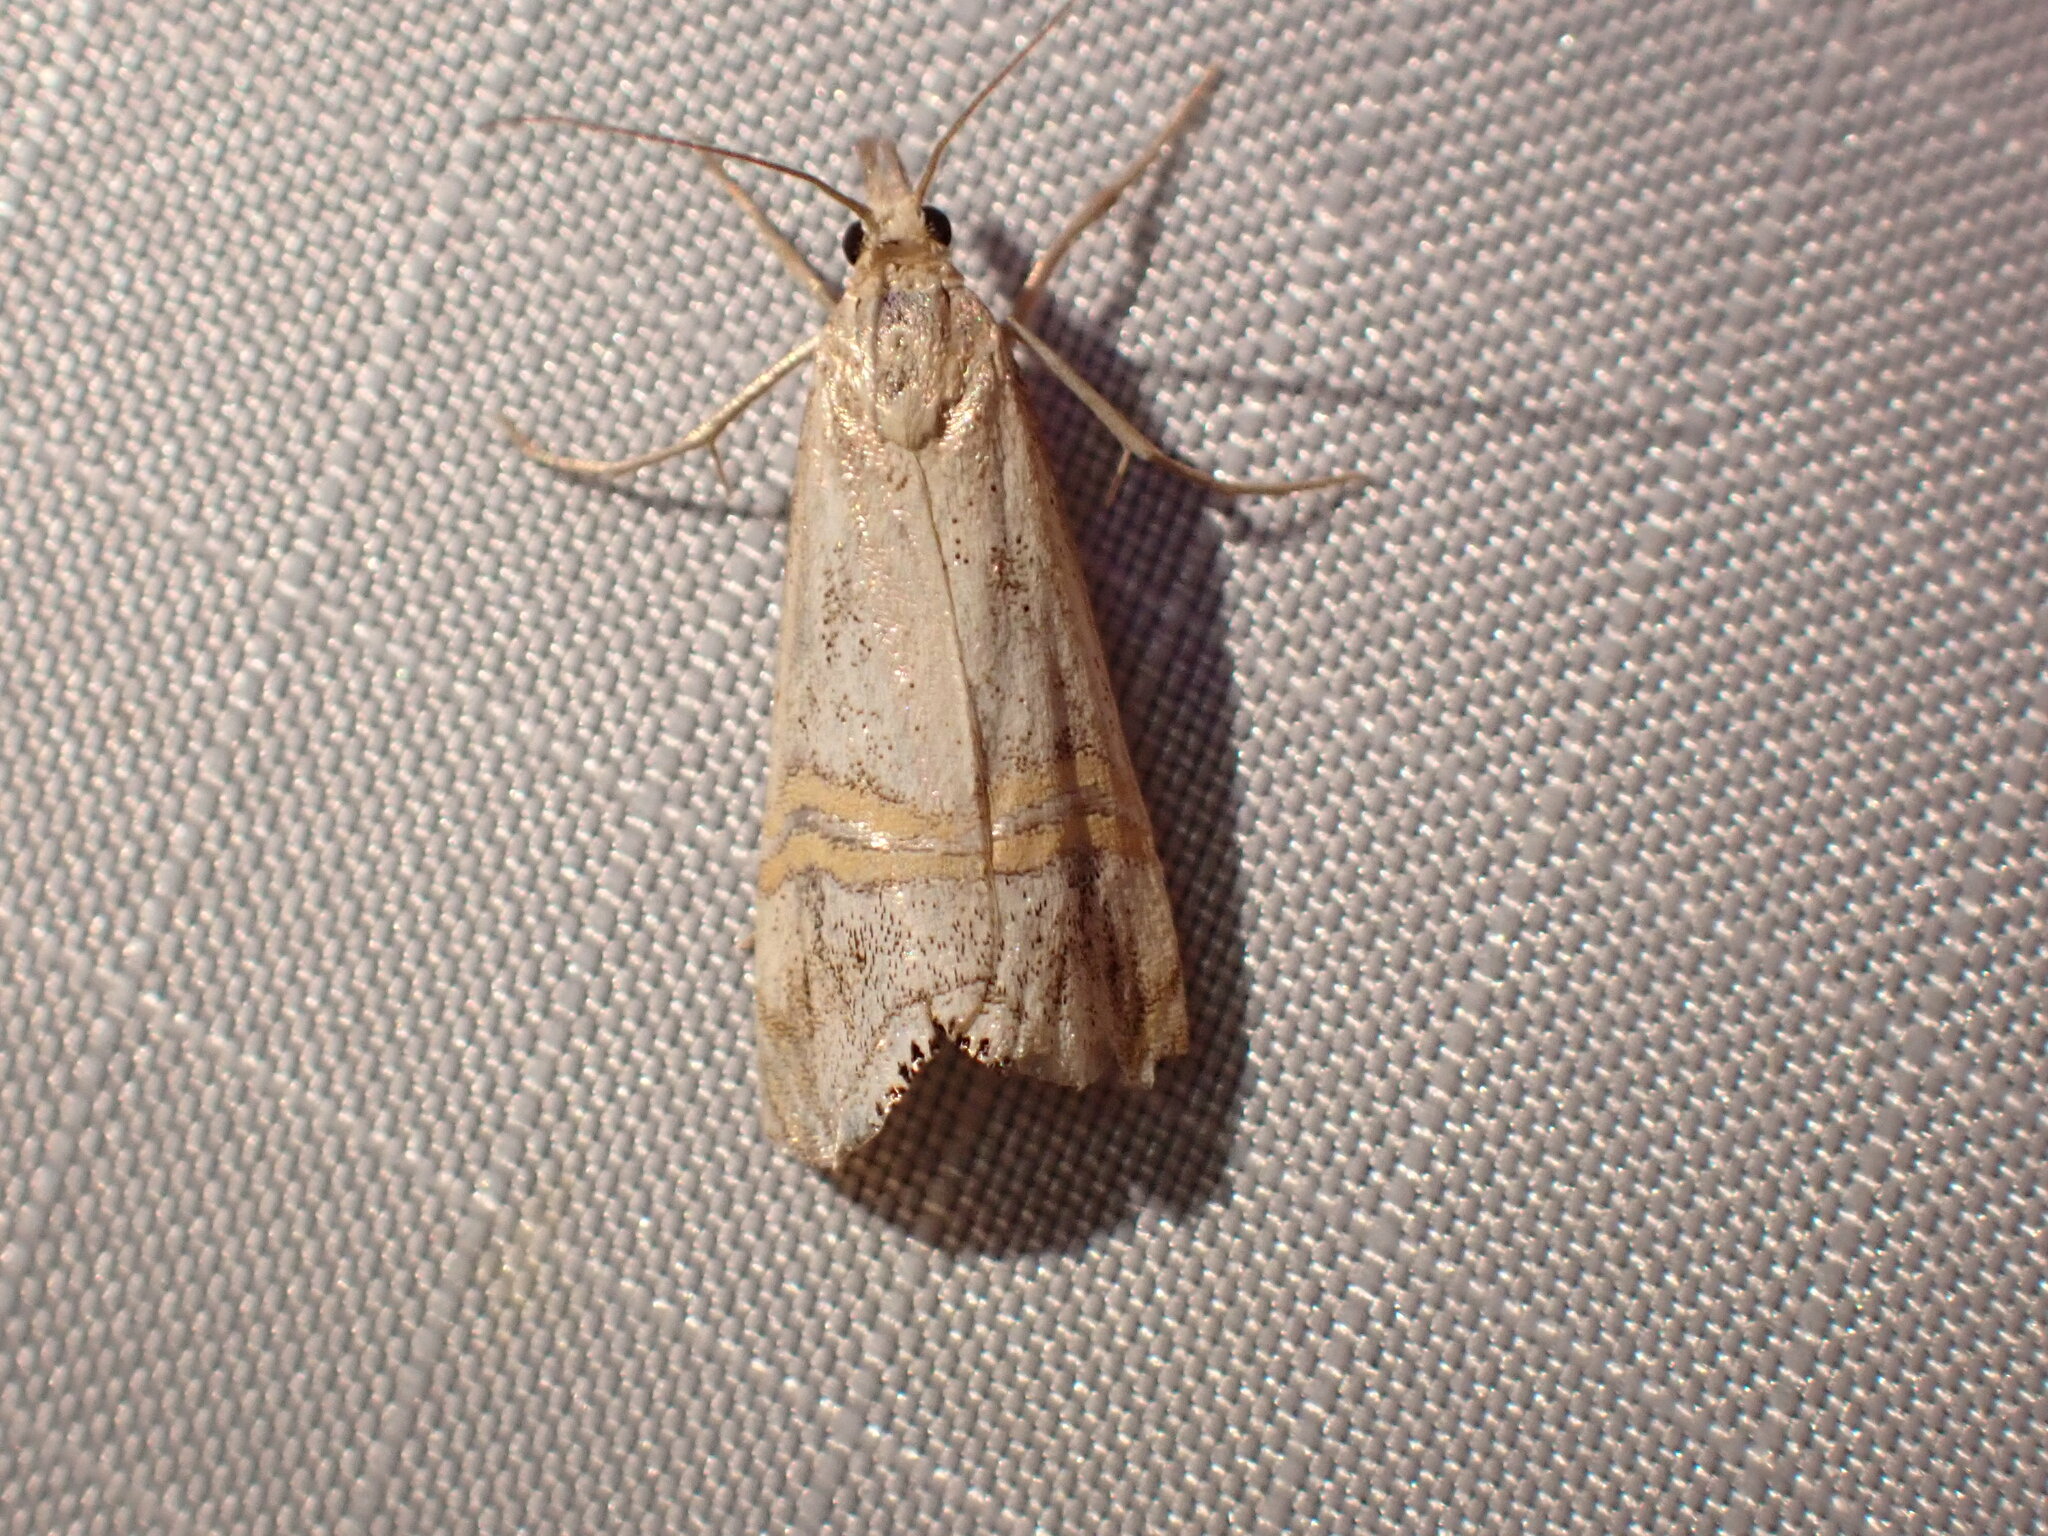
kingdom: Animalia
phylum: Arthropoda
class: Insecta
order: Lepidoptera
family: Crambidae
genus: Euchromius
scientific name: Euchromius ocellea
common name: Necklace veneer moth
